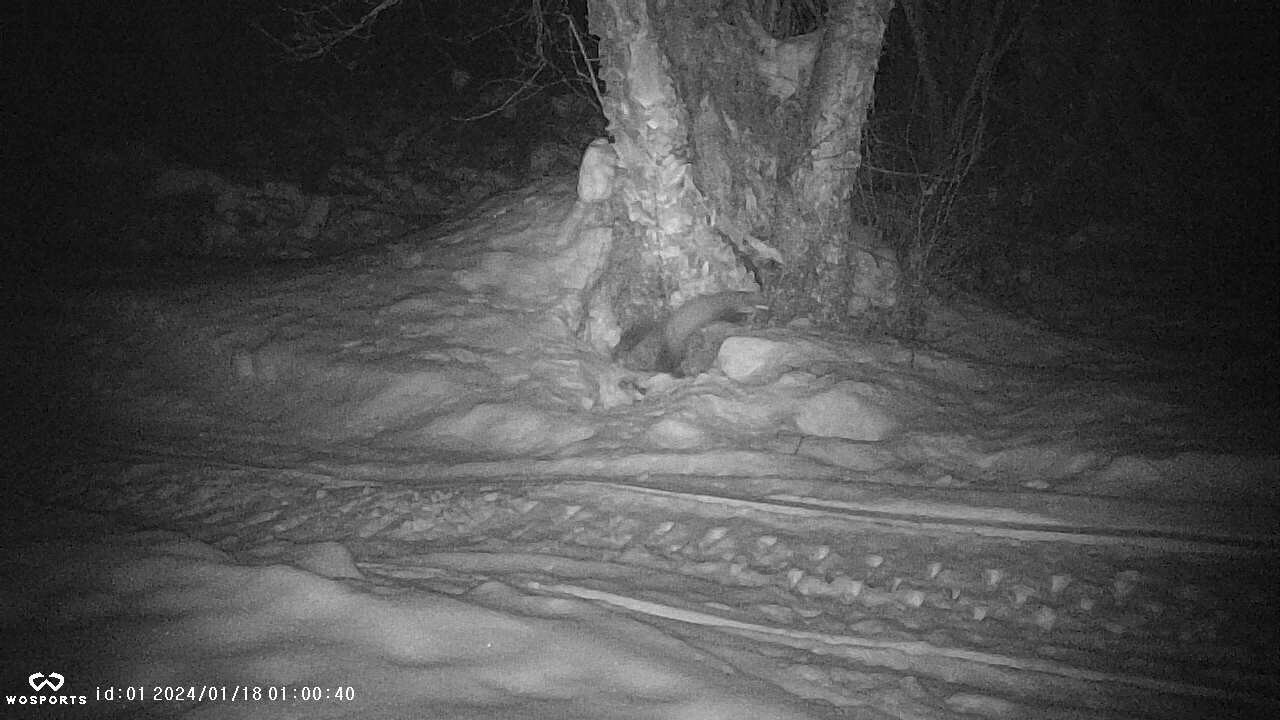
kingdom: Animalia
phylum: Chordata
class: Mammalia
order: Carnivora
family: Mustelidae
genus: Martes
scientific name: Martes americana
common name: American marten
